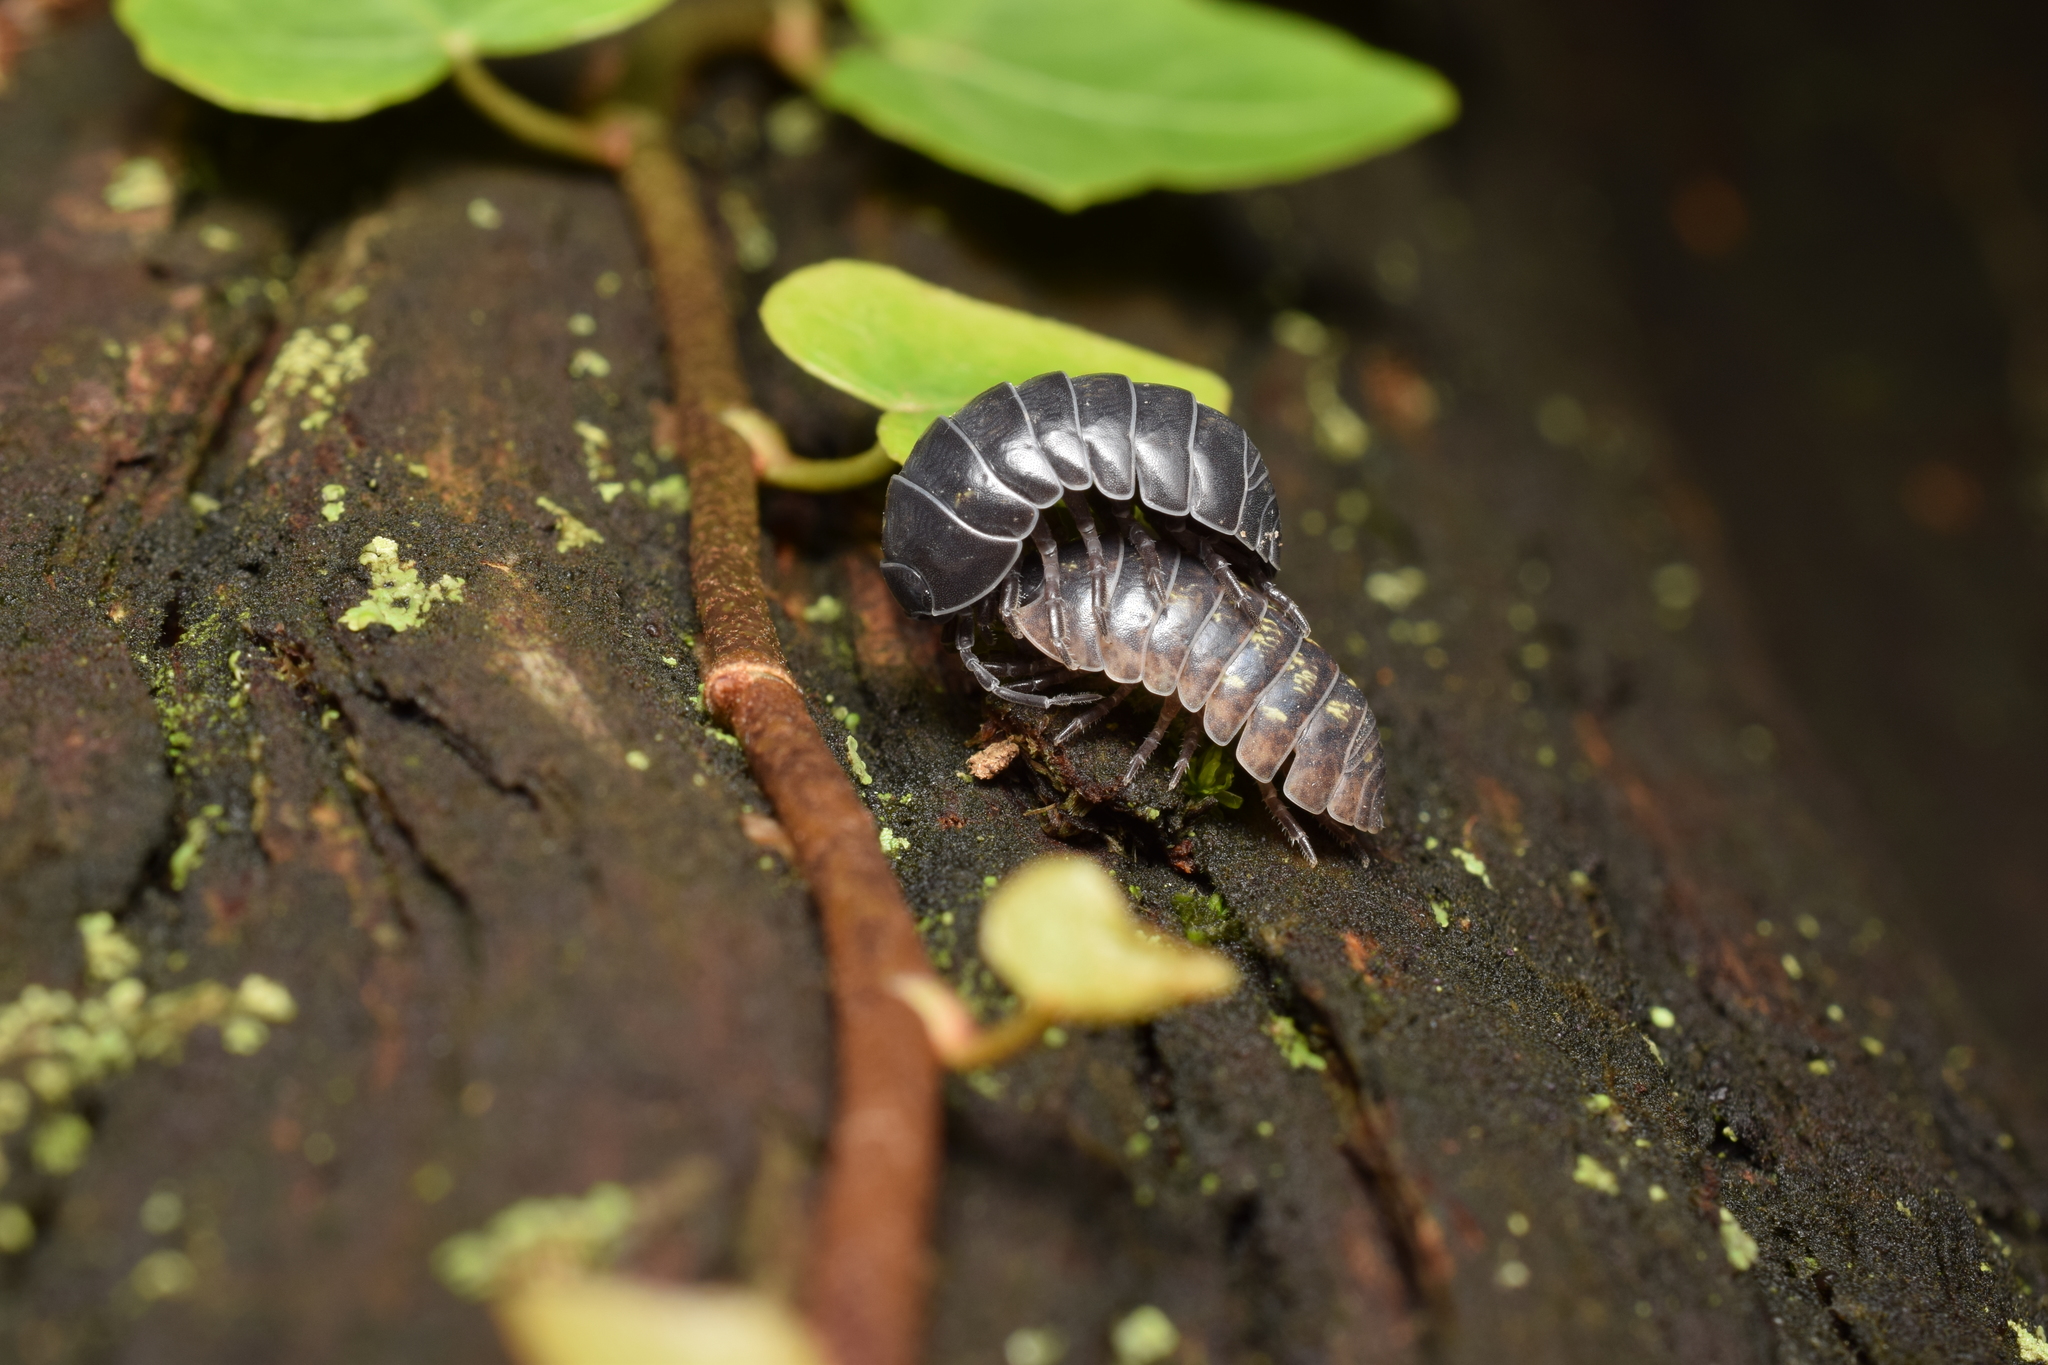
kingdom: Animalia
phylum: Arthropoda
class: Malacostraca
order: Isopoda
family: Armadillidiidae
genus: Armadillidium
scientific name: Armadillidium vulgare
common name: Common pill woodlouse
